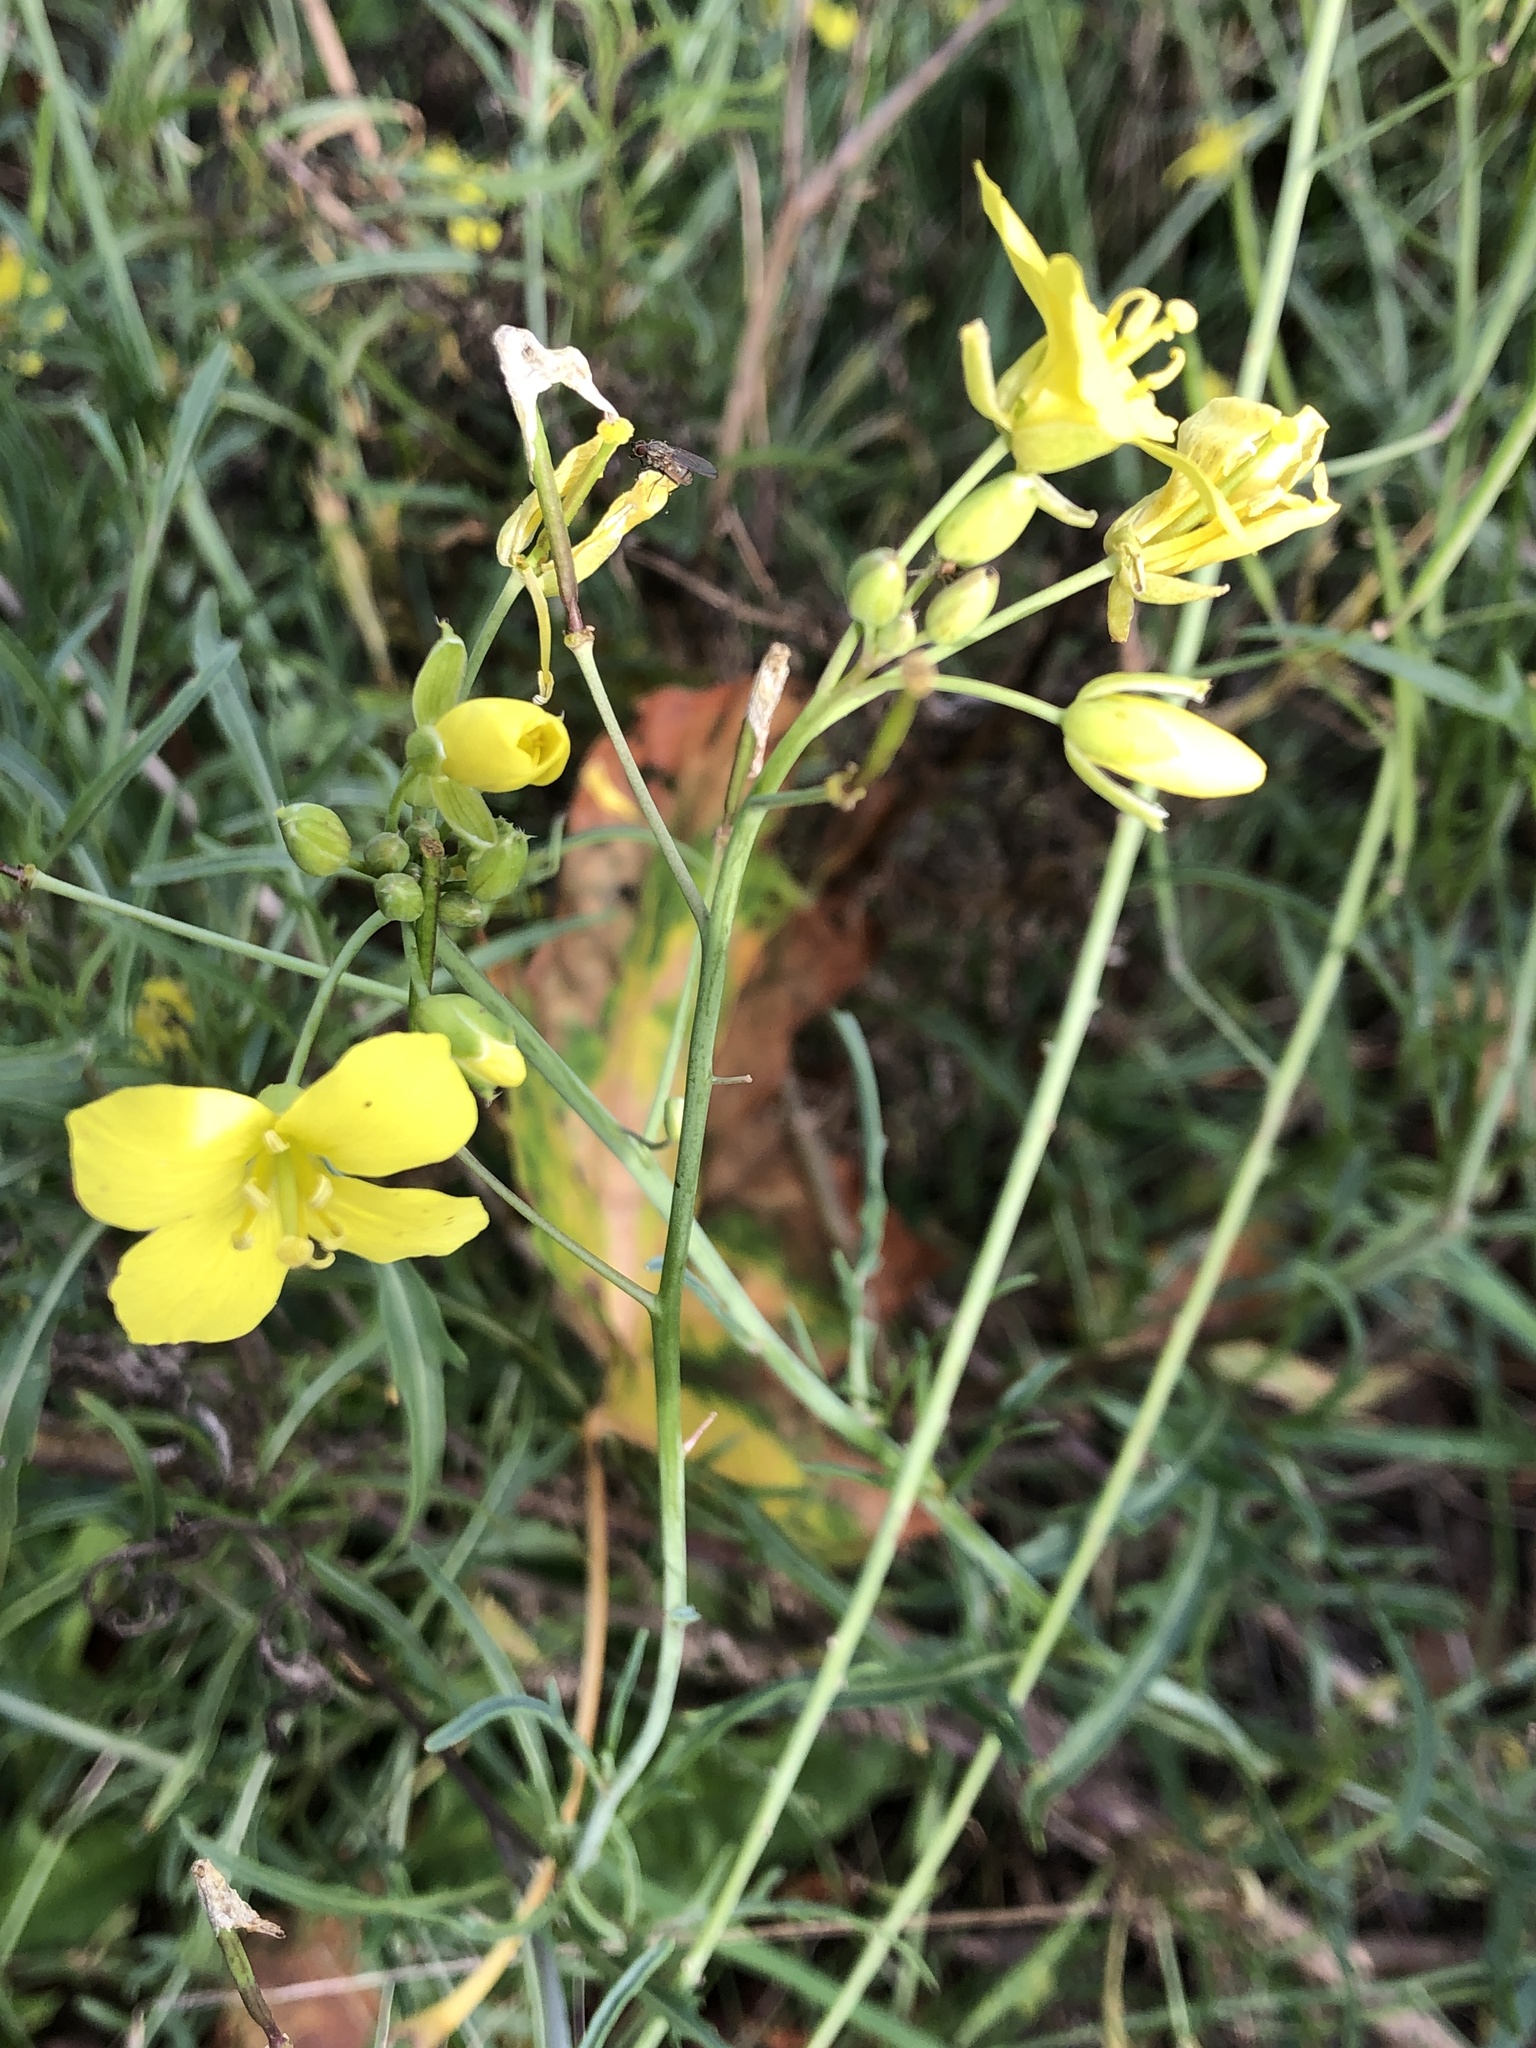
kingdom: Plantae
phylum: Tracheophyta
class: Magnoliopsida
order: Brassicales
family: Brassicaceae
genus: Diplotaxis
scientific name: Diplotaxis tenuifolia
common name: Perennial wall-rocket
